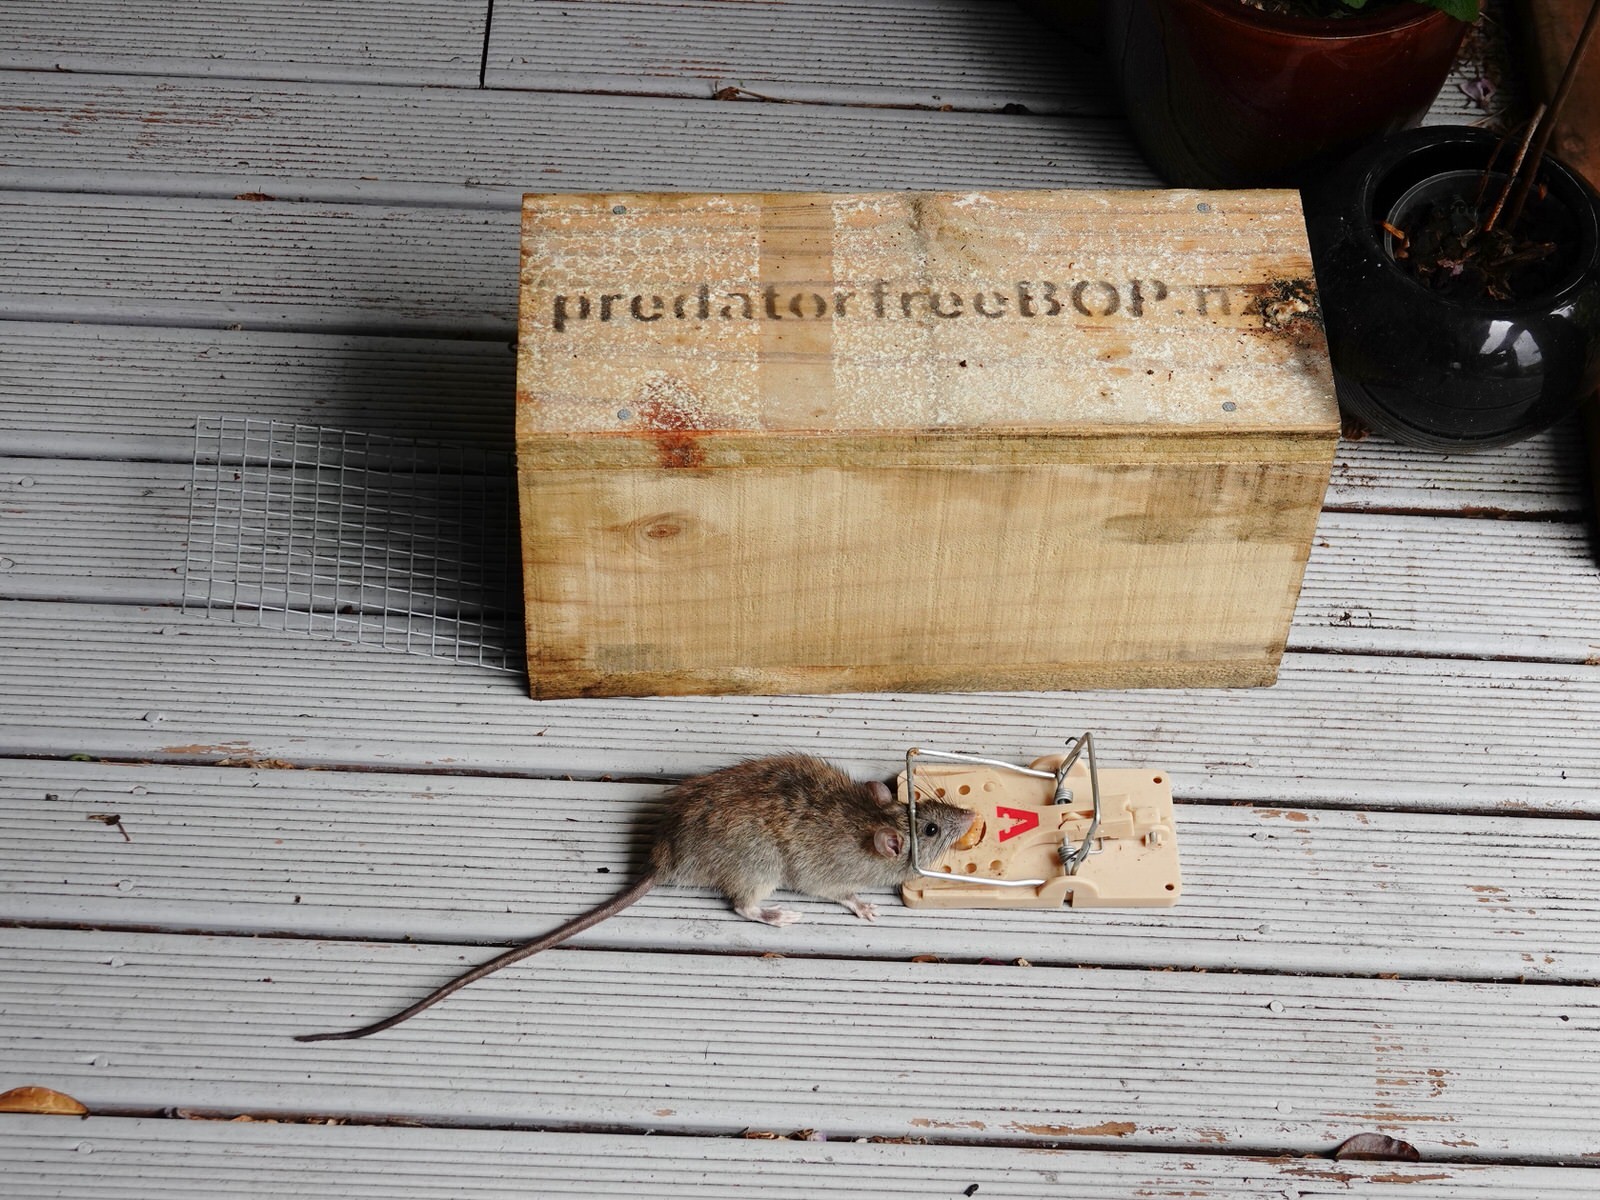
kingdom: Animalia
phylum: Chordata
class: Mammalia
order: Rodentia
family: Muridae
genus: Rattus
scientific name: Rattus rattus
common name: Black rat
